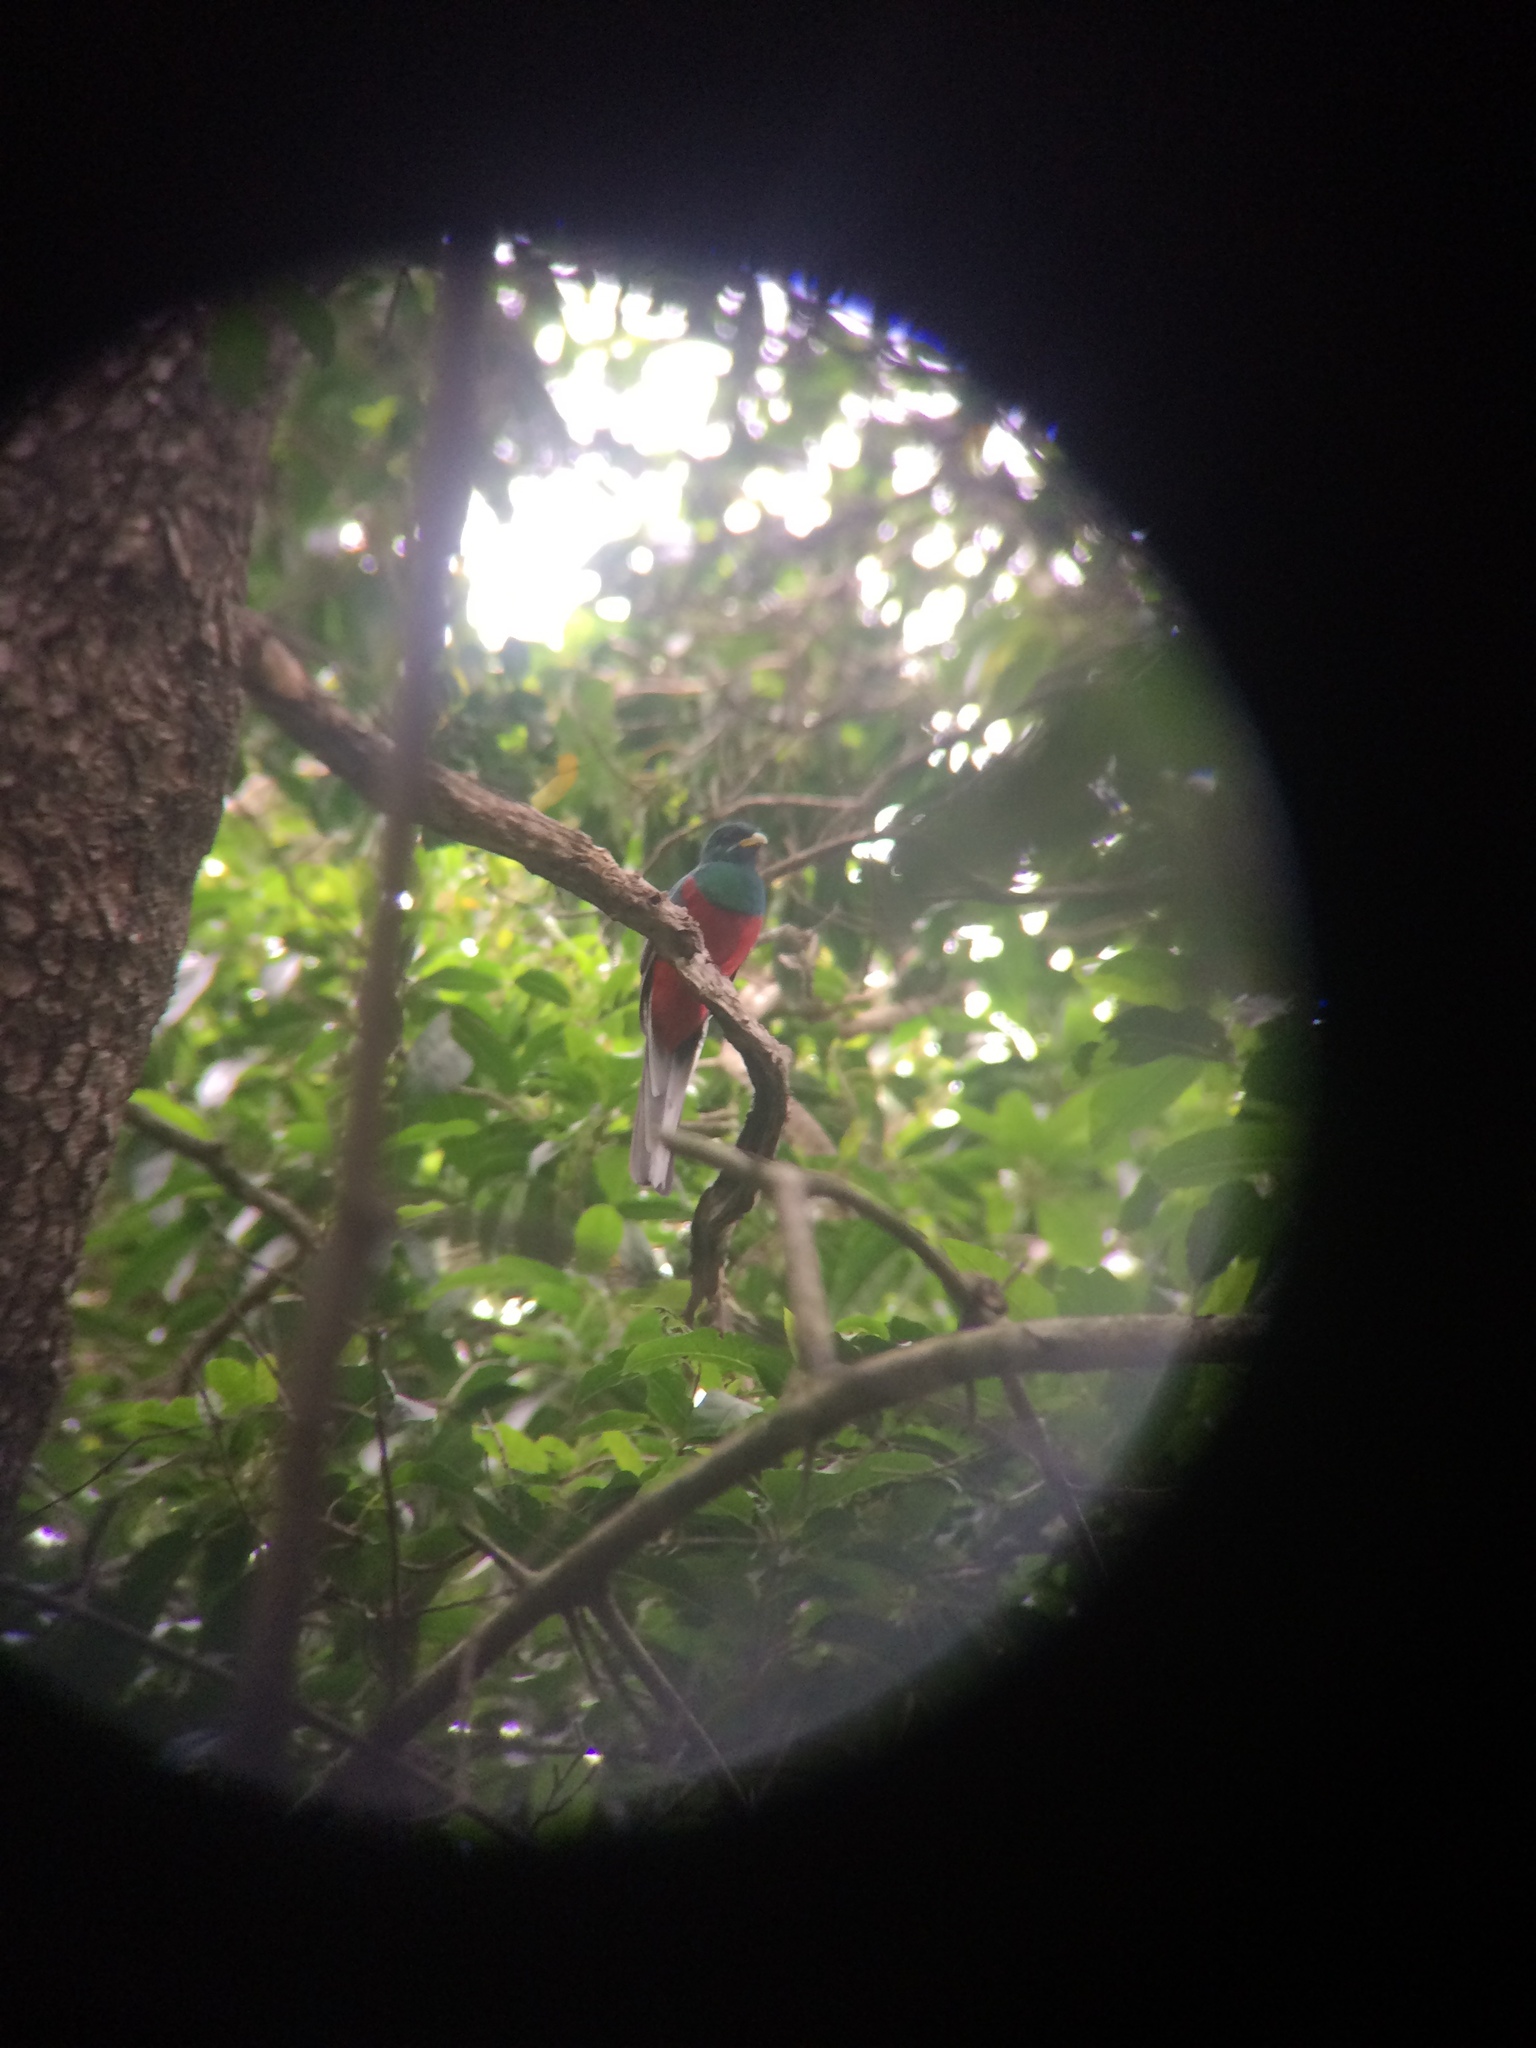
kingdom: Animalia
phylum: Chordata
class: Aves
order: Trogoniformes
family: Trogonidae
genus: Apaloderma
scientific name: Apaloderma narina
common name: Narina trogon
